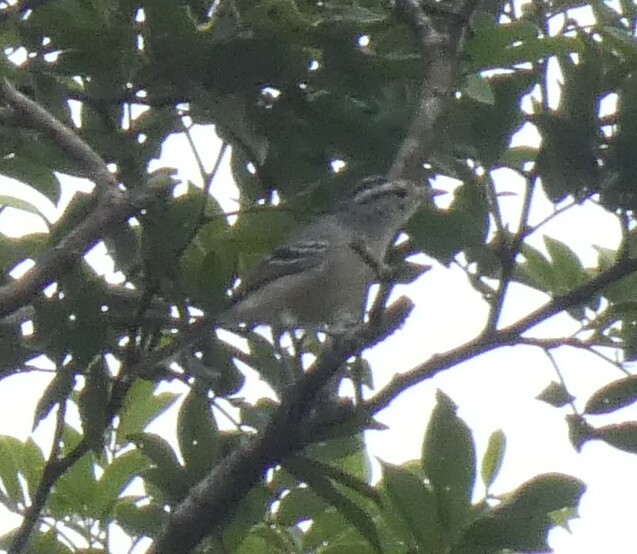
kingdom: Animalia
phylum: Chordata
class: Aves
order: Passeriformes
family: Thamnophilidae
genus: Herpsilochmus
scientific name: Herpsilochmus atricapillus
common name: Black-capped antwren
